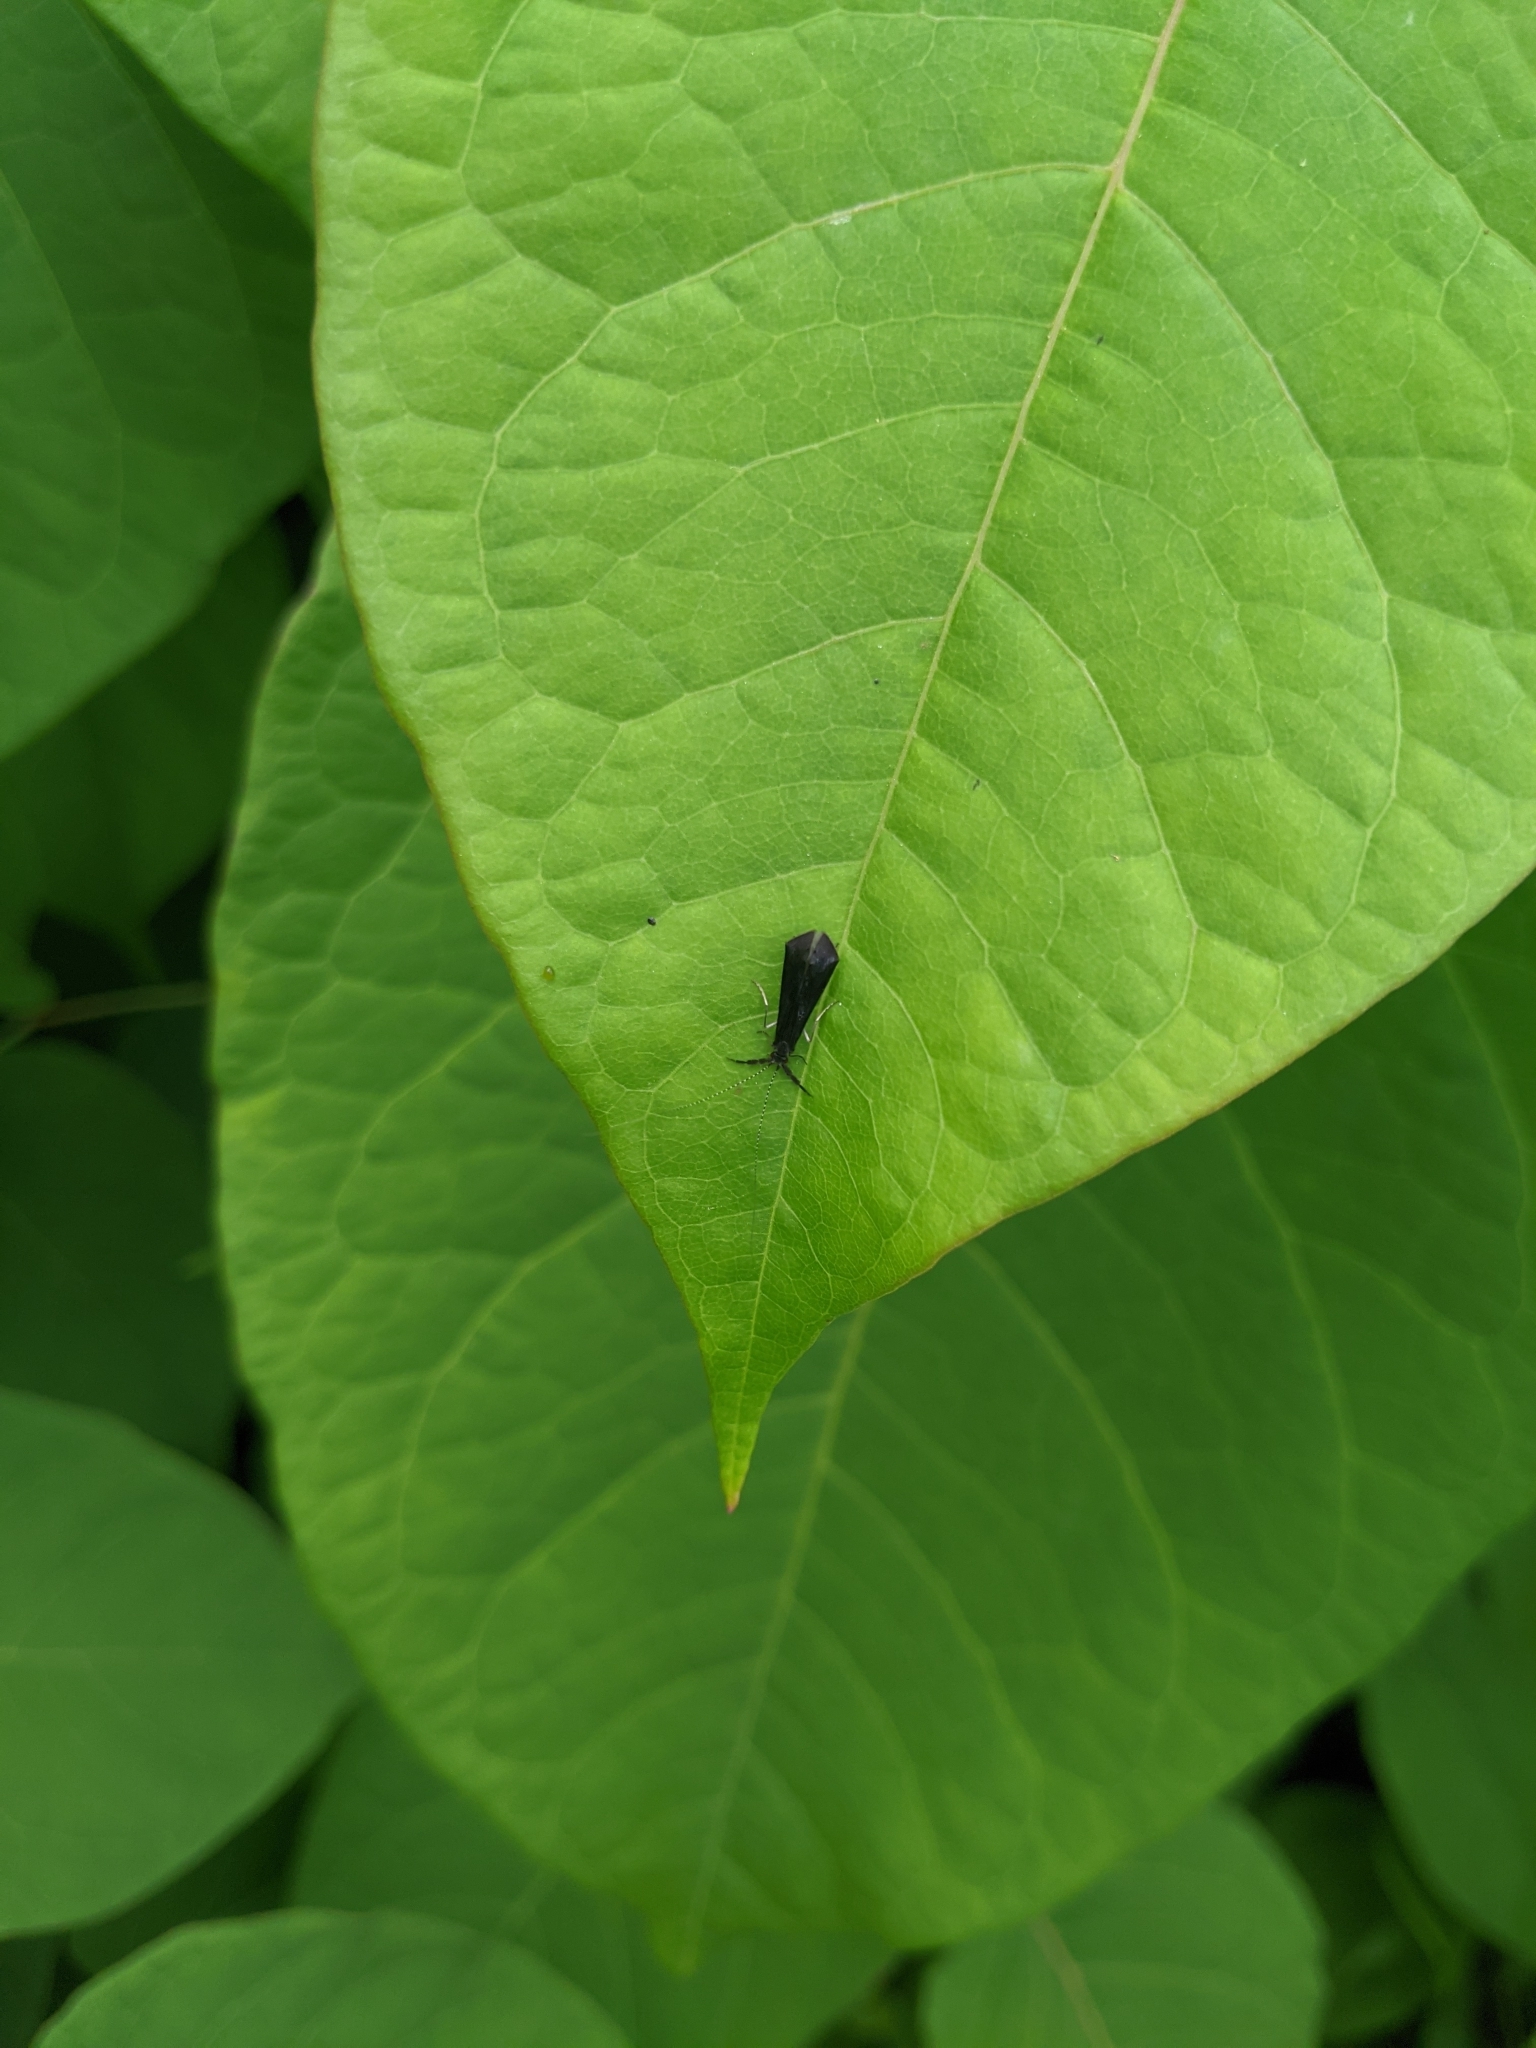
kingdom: Animalia
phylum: Arthropoda
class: Insecta
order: Trichoptera
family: Leptoceridae
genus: Mystacides
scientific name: Mystacides sepulchralis
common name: Black dancer caddisfly
